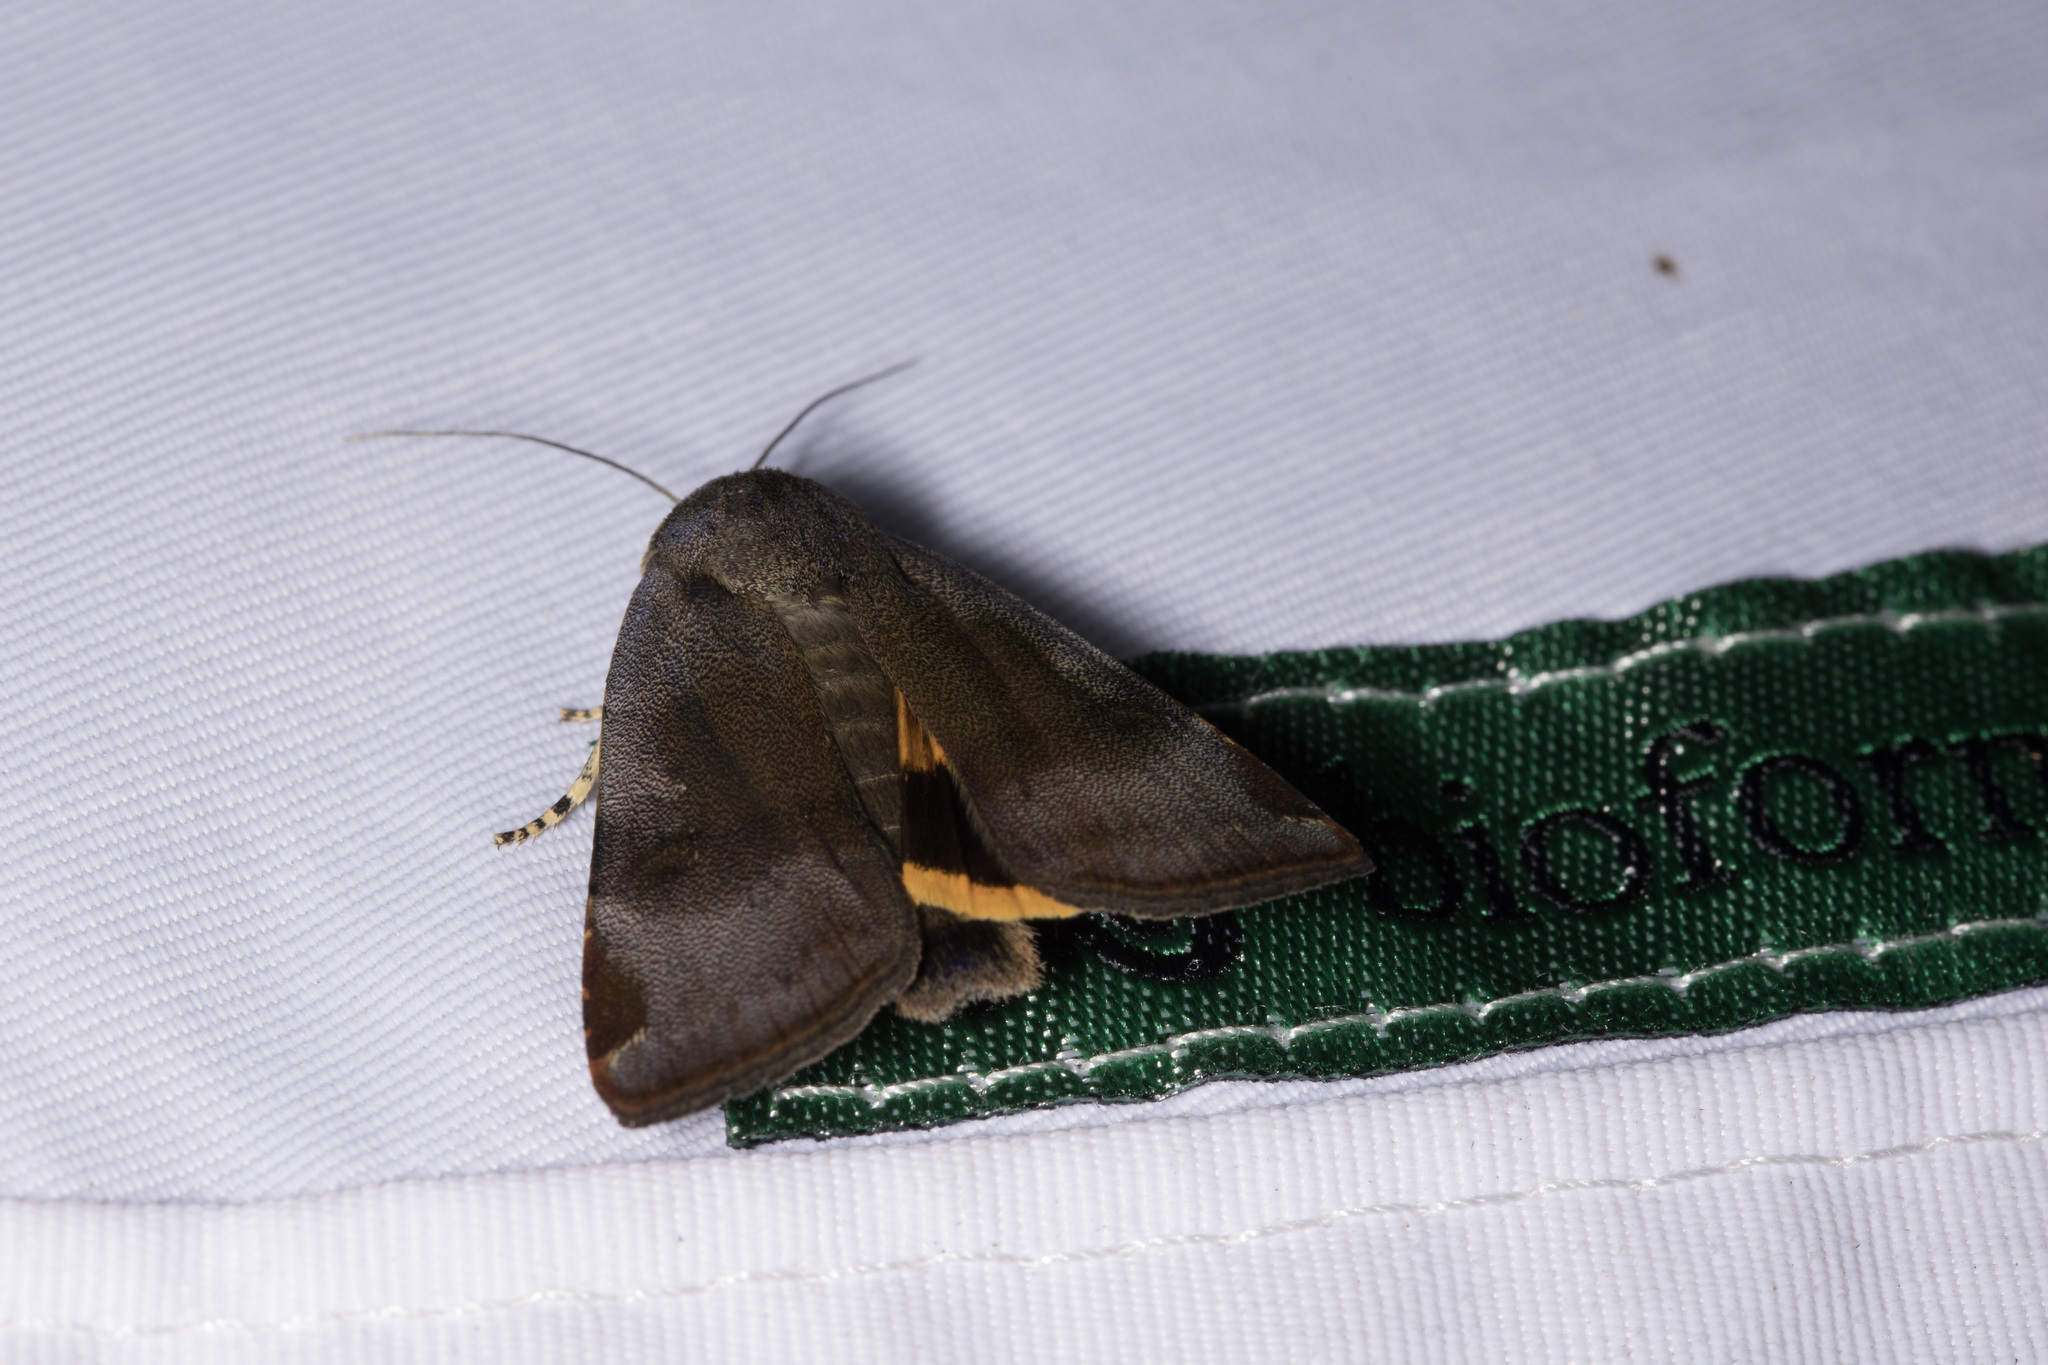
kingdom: Animalia
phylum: Arthropoda
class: Insecta
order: Lepidoptera
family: Noctuidae
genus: Noctua
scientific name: Noctua janthina
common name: Langmaid's yellow underwing
